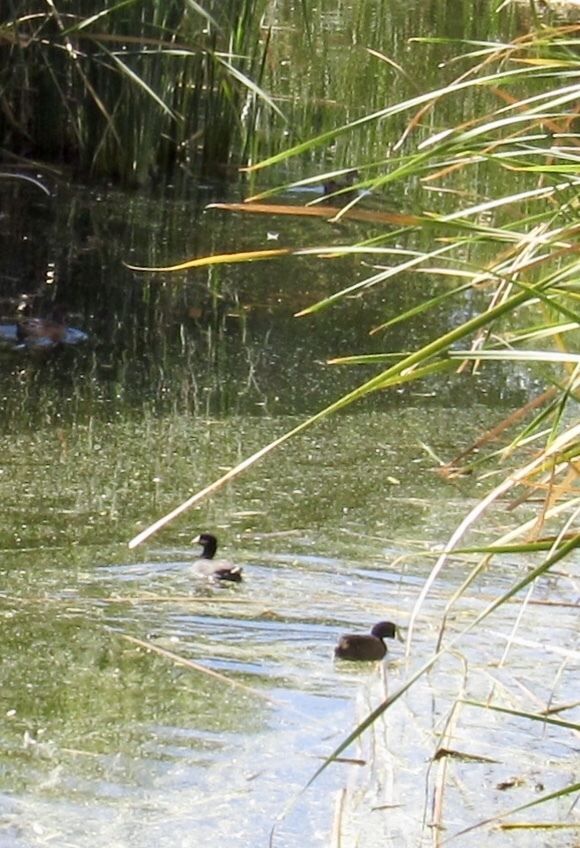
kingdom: Animalia
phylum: Chordata
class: Aves
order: Gruiformes
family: Rallidae
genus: Fulica
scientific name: Fulica americana
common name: American coot
